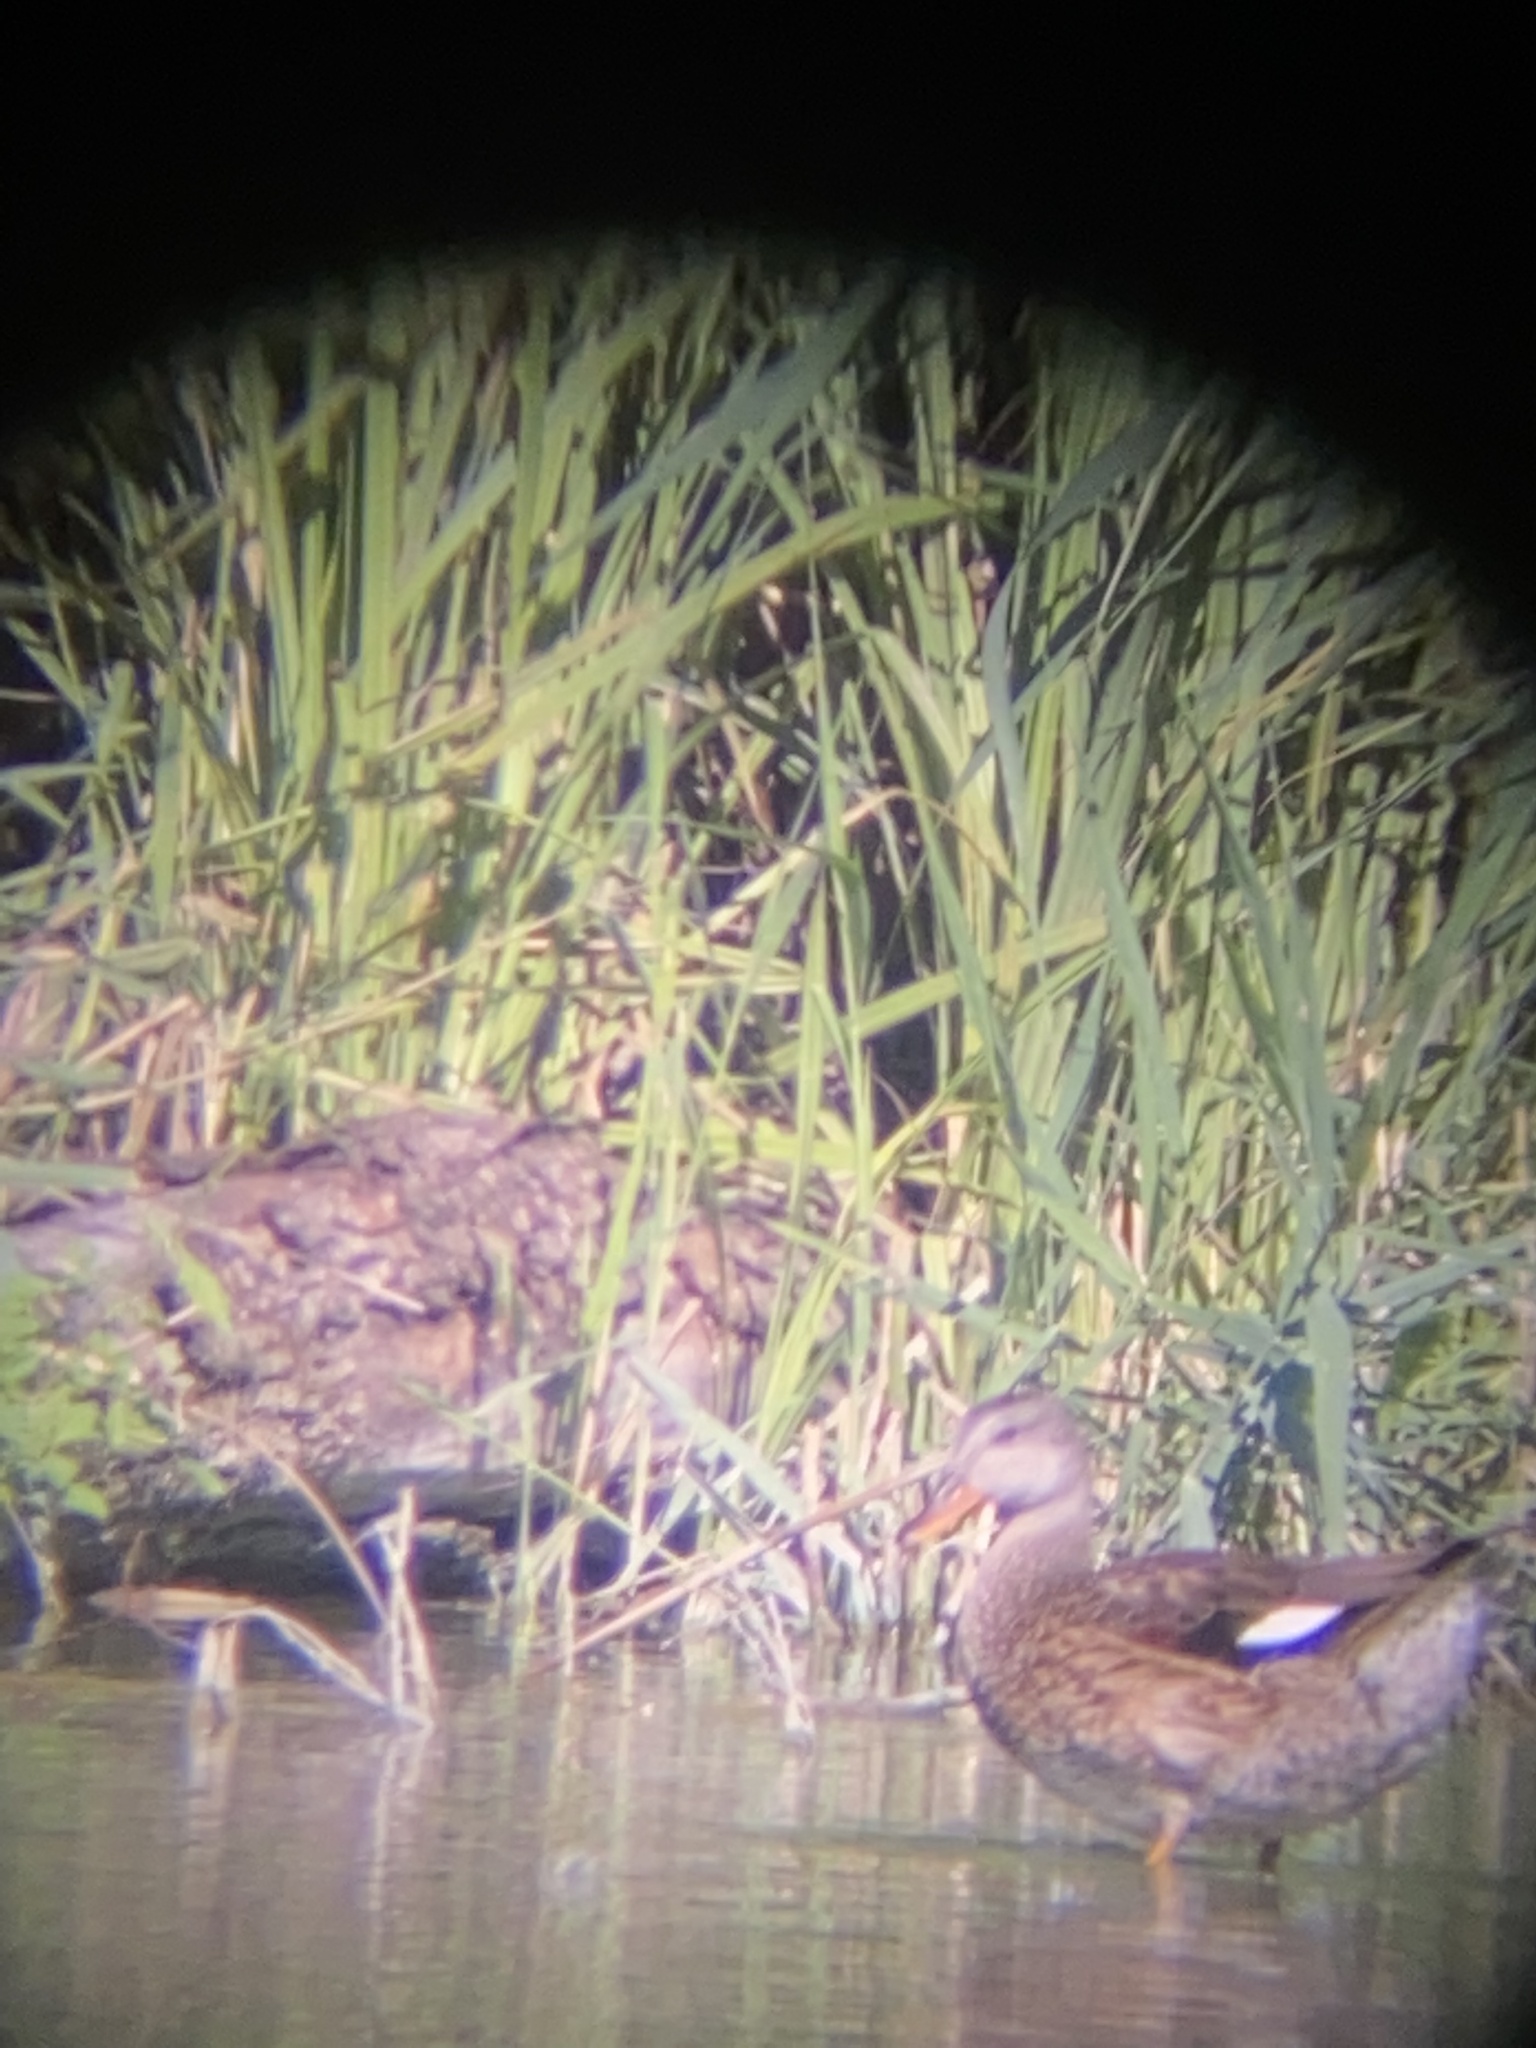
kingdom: Animalia
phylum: Chordata
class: Aves
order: Anseriformes
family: Anatidae
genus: Mareca
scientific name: Mareca strepera
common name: Gadwall
